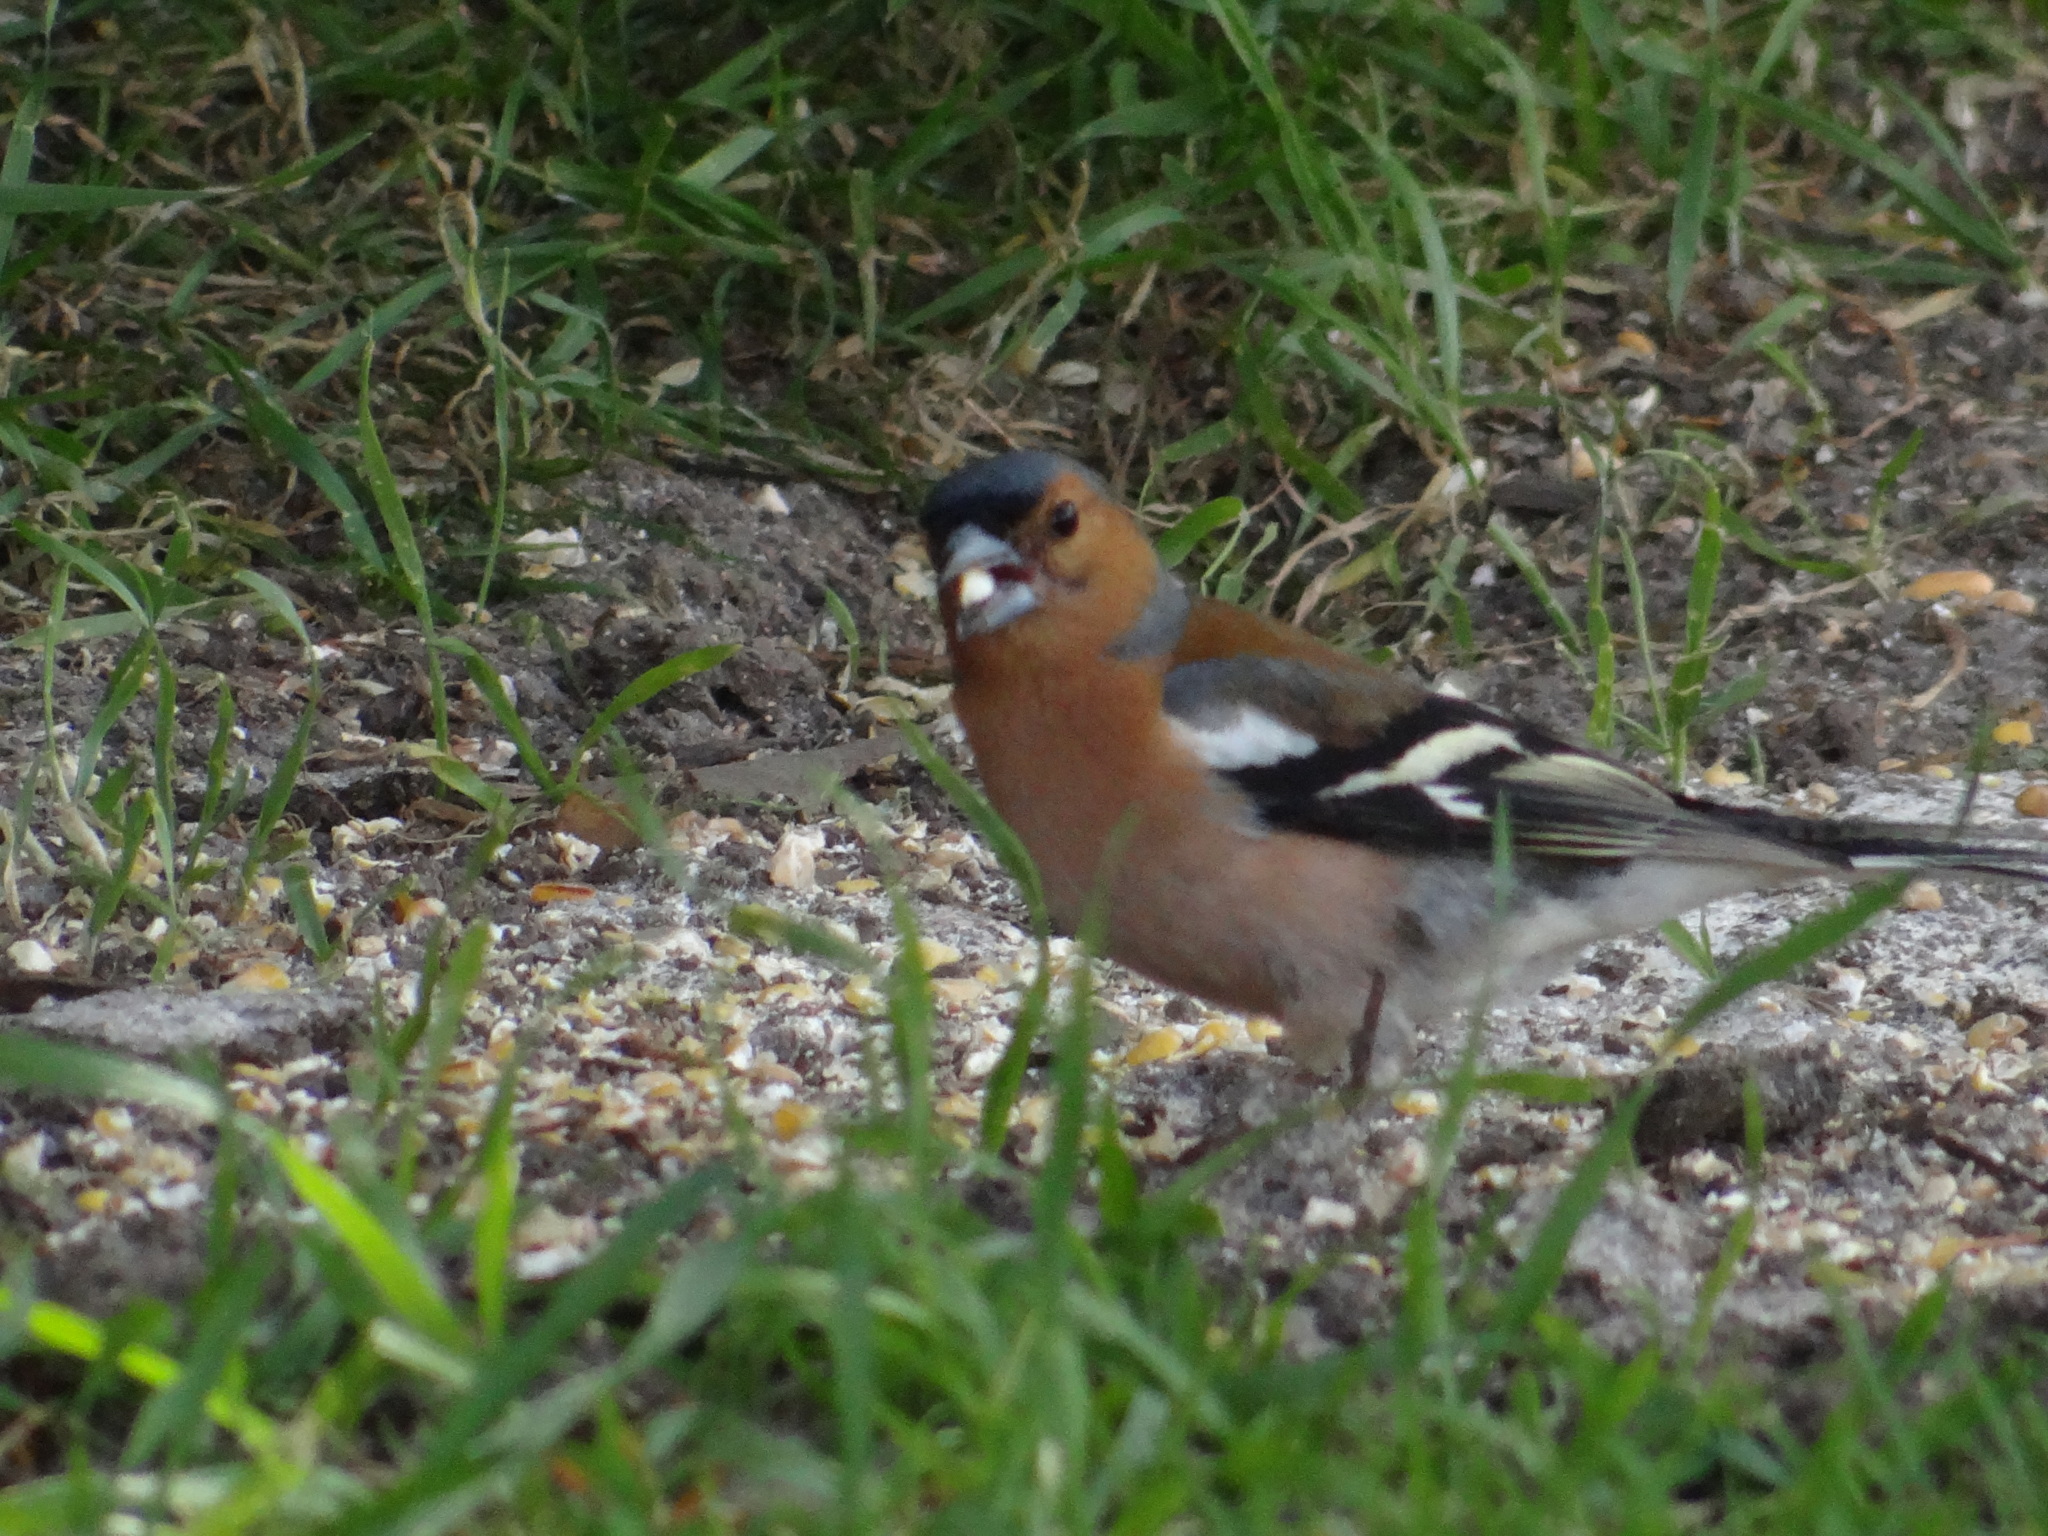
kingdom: Animalia
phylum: Chordata
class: Aves
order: Passeriformes
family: Fringillidae
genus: Fringilla
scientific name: Fringilla coelebs
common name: Common chaffinch
